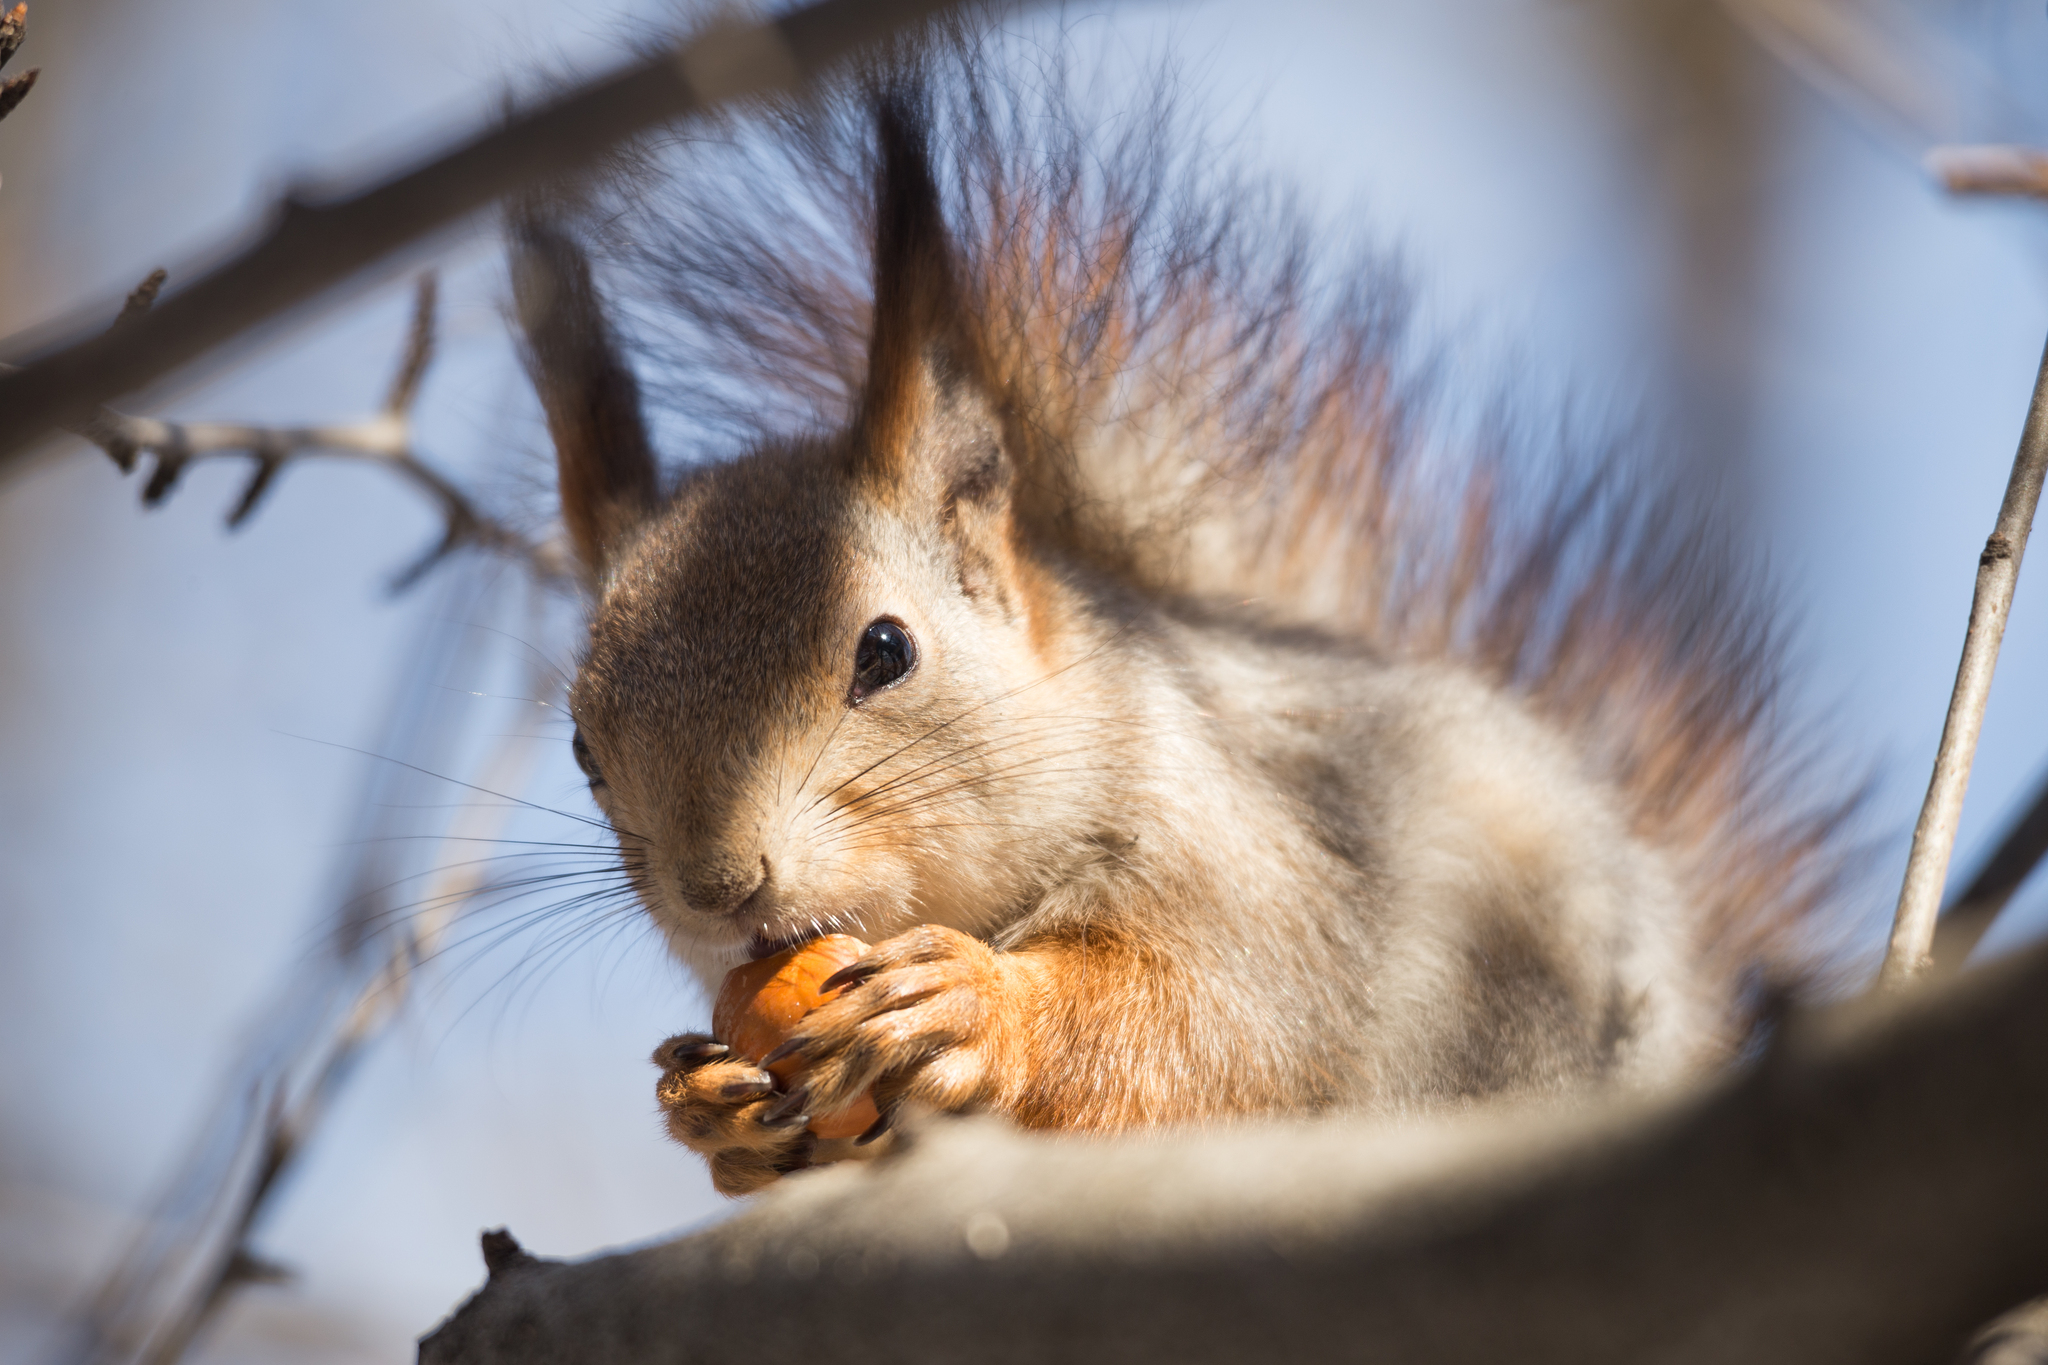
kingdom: Animalia
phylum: Chordata
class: Mammalia
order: Rodentia
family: Sciuridae
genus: Sciurus
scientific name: Sciurus vulgaris
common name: Eurasian red squirrel
